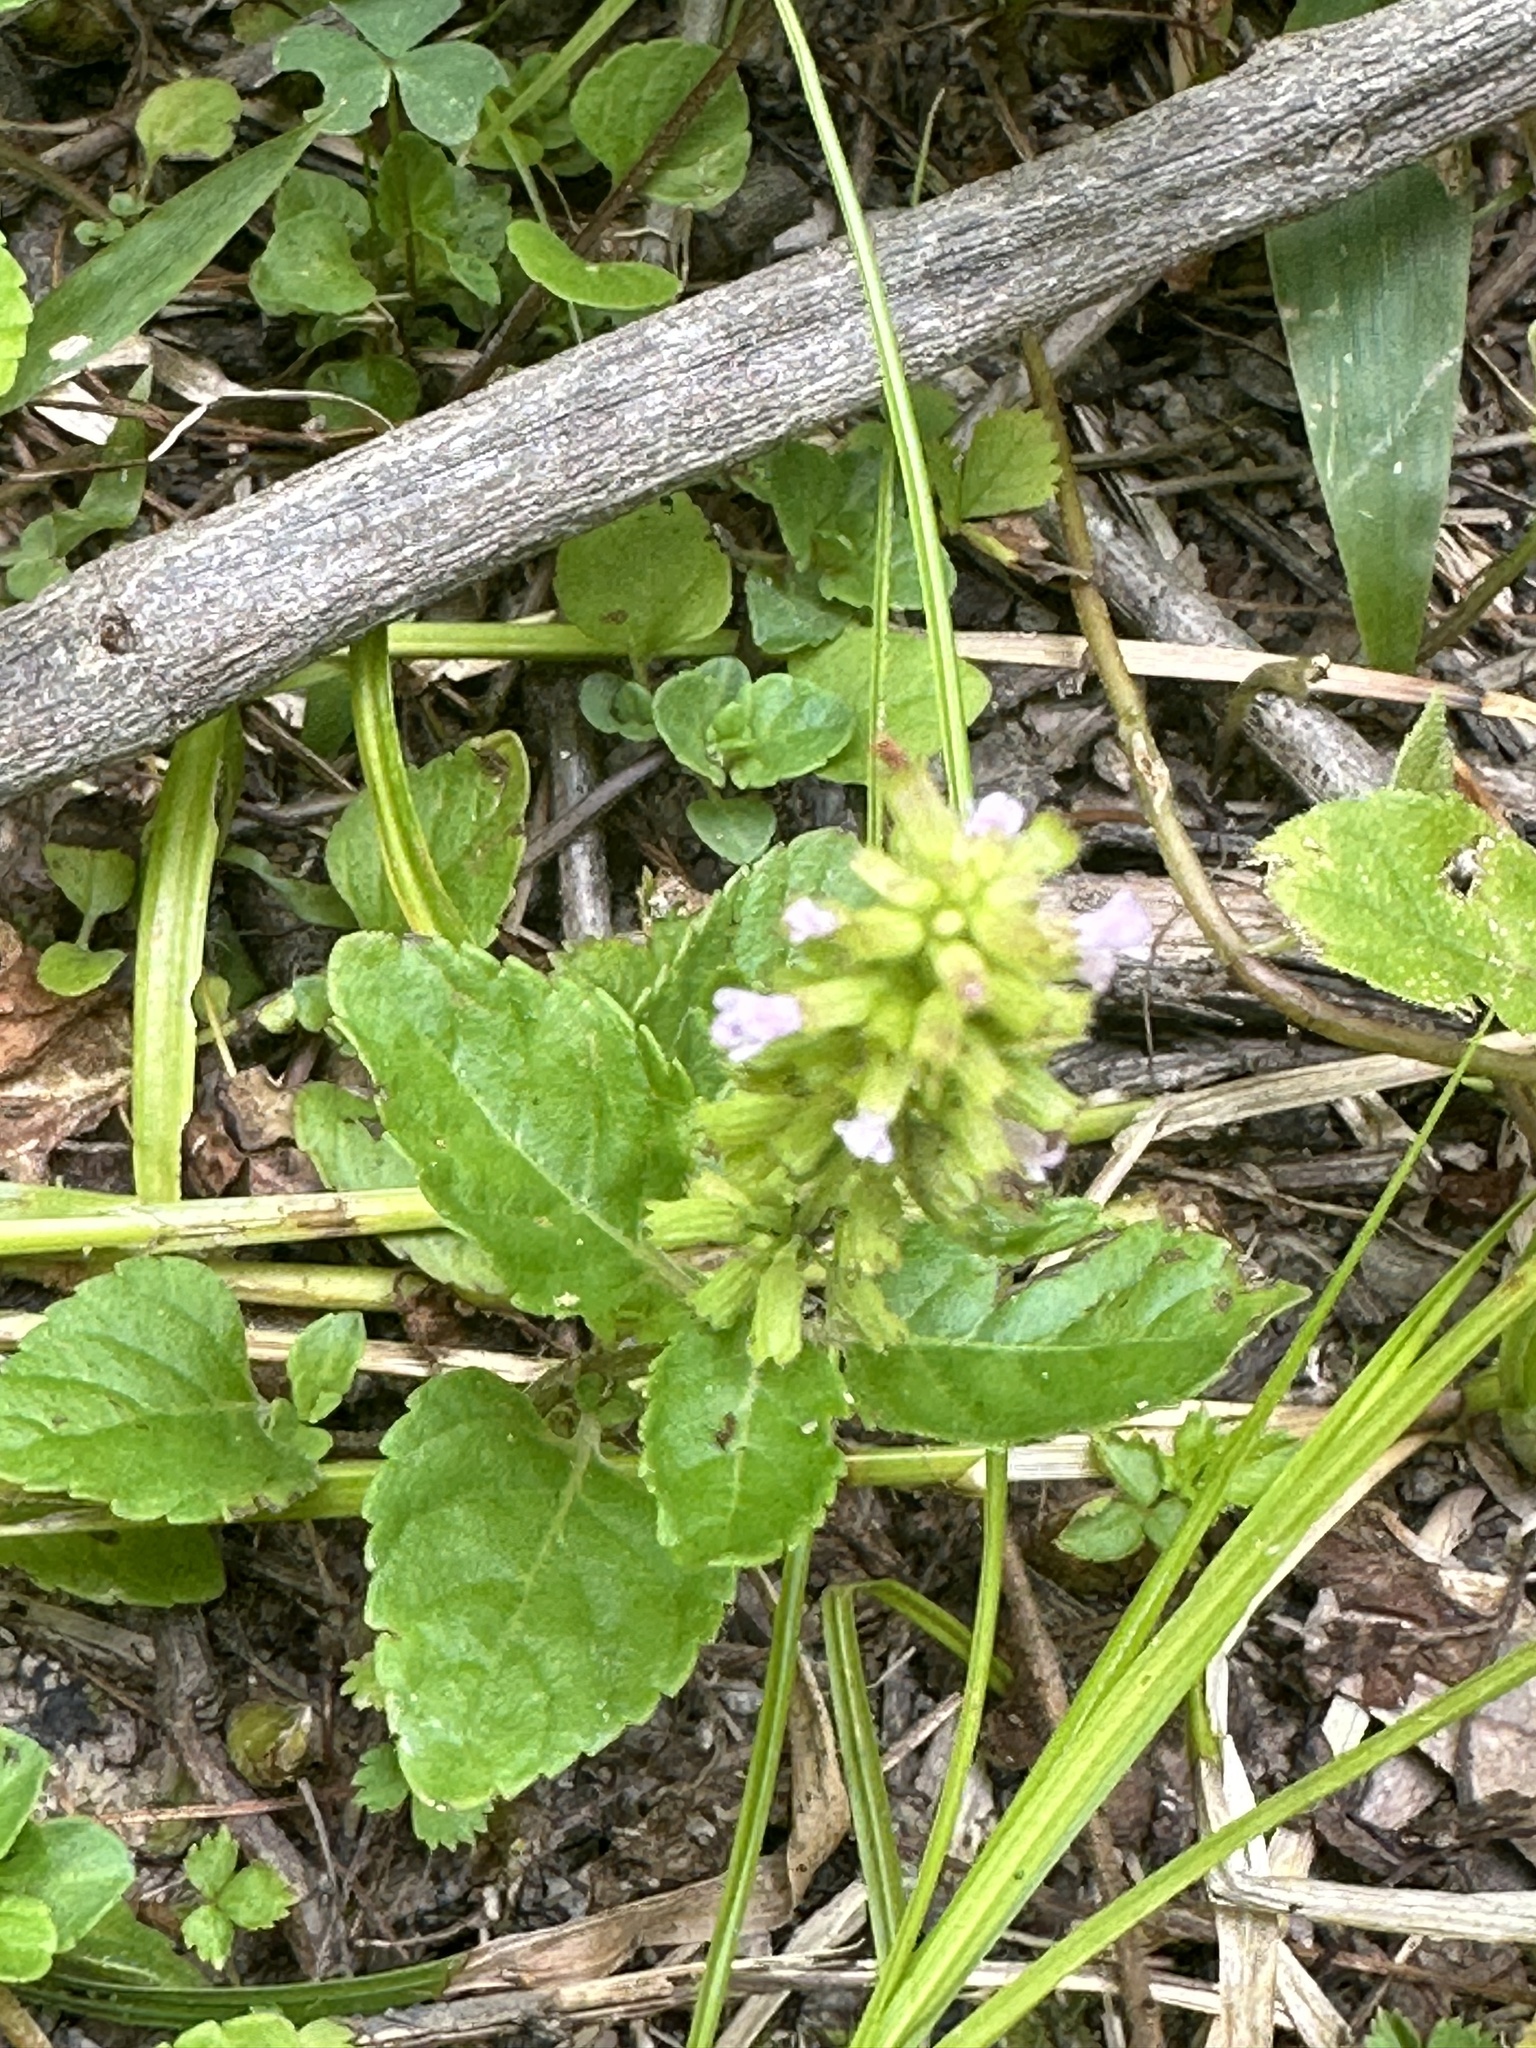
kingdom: Plantae
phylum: Tracheophyta
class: Magnoliopsida
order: Lamiales
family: Lamiaceae
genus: Clinopodium
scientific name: Clinopodium gracile
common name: Slender wild basil
